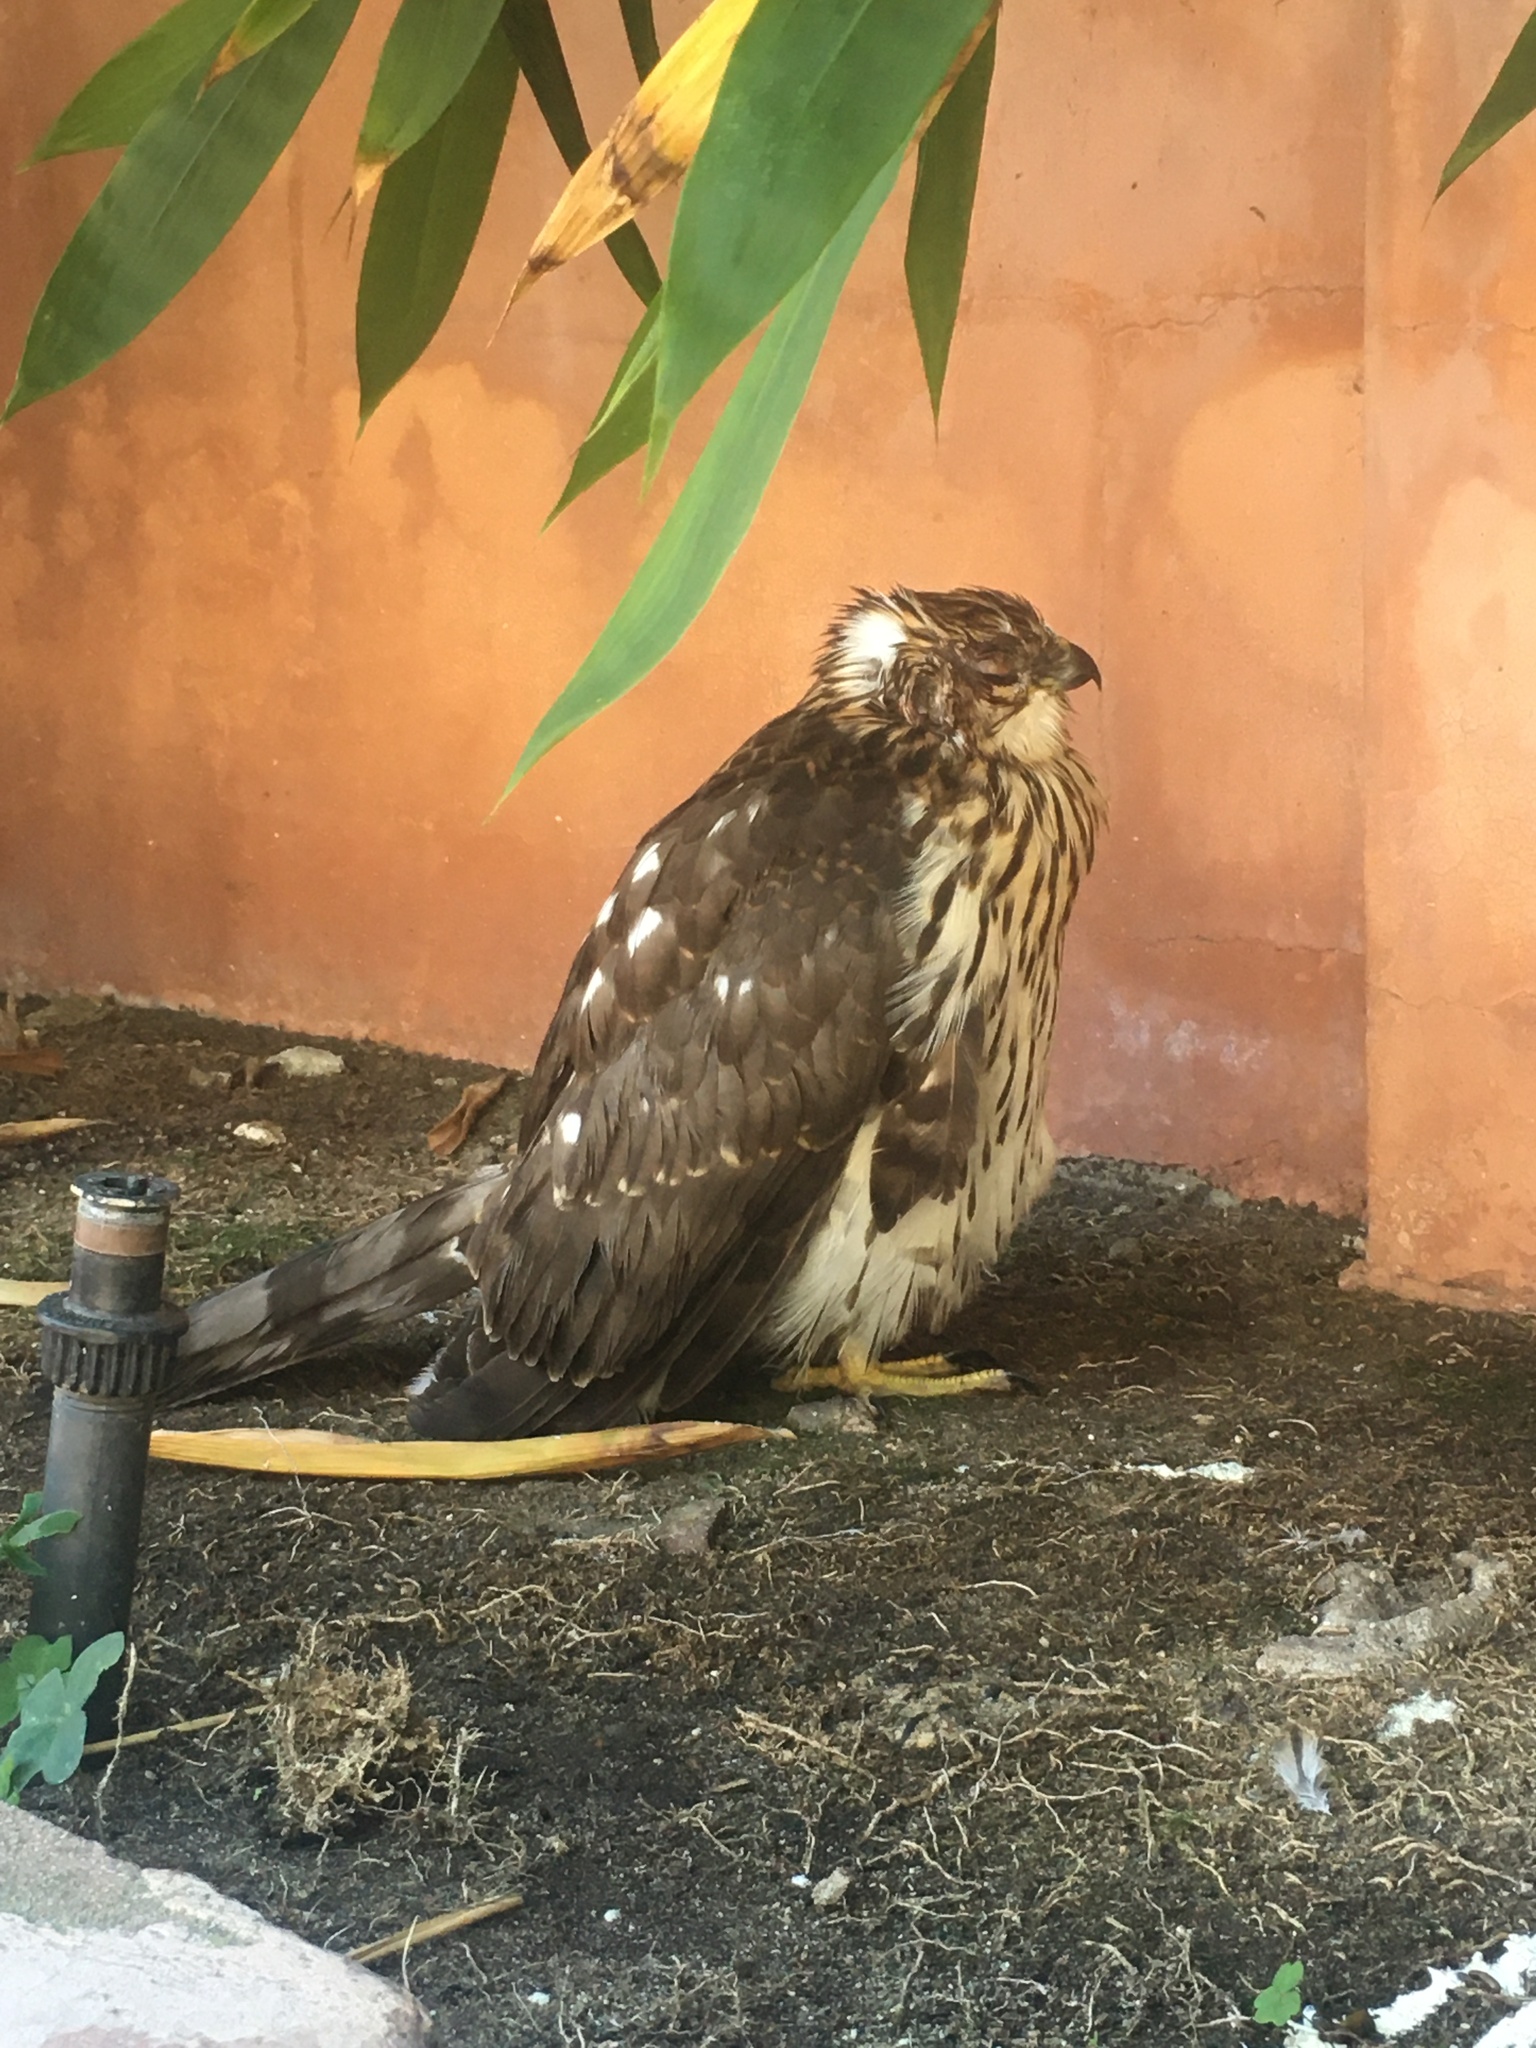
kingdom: Animalia
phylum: Chordata
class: Aves
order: Accipitriformes
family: Accipitridae
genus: Accipiter
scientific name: Accipiter cooperii
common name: Cooper's hawk
